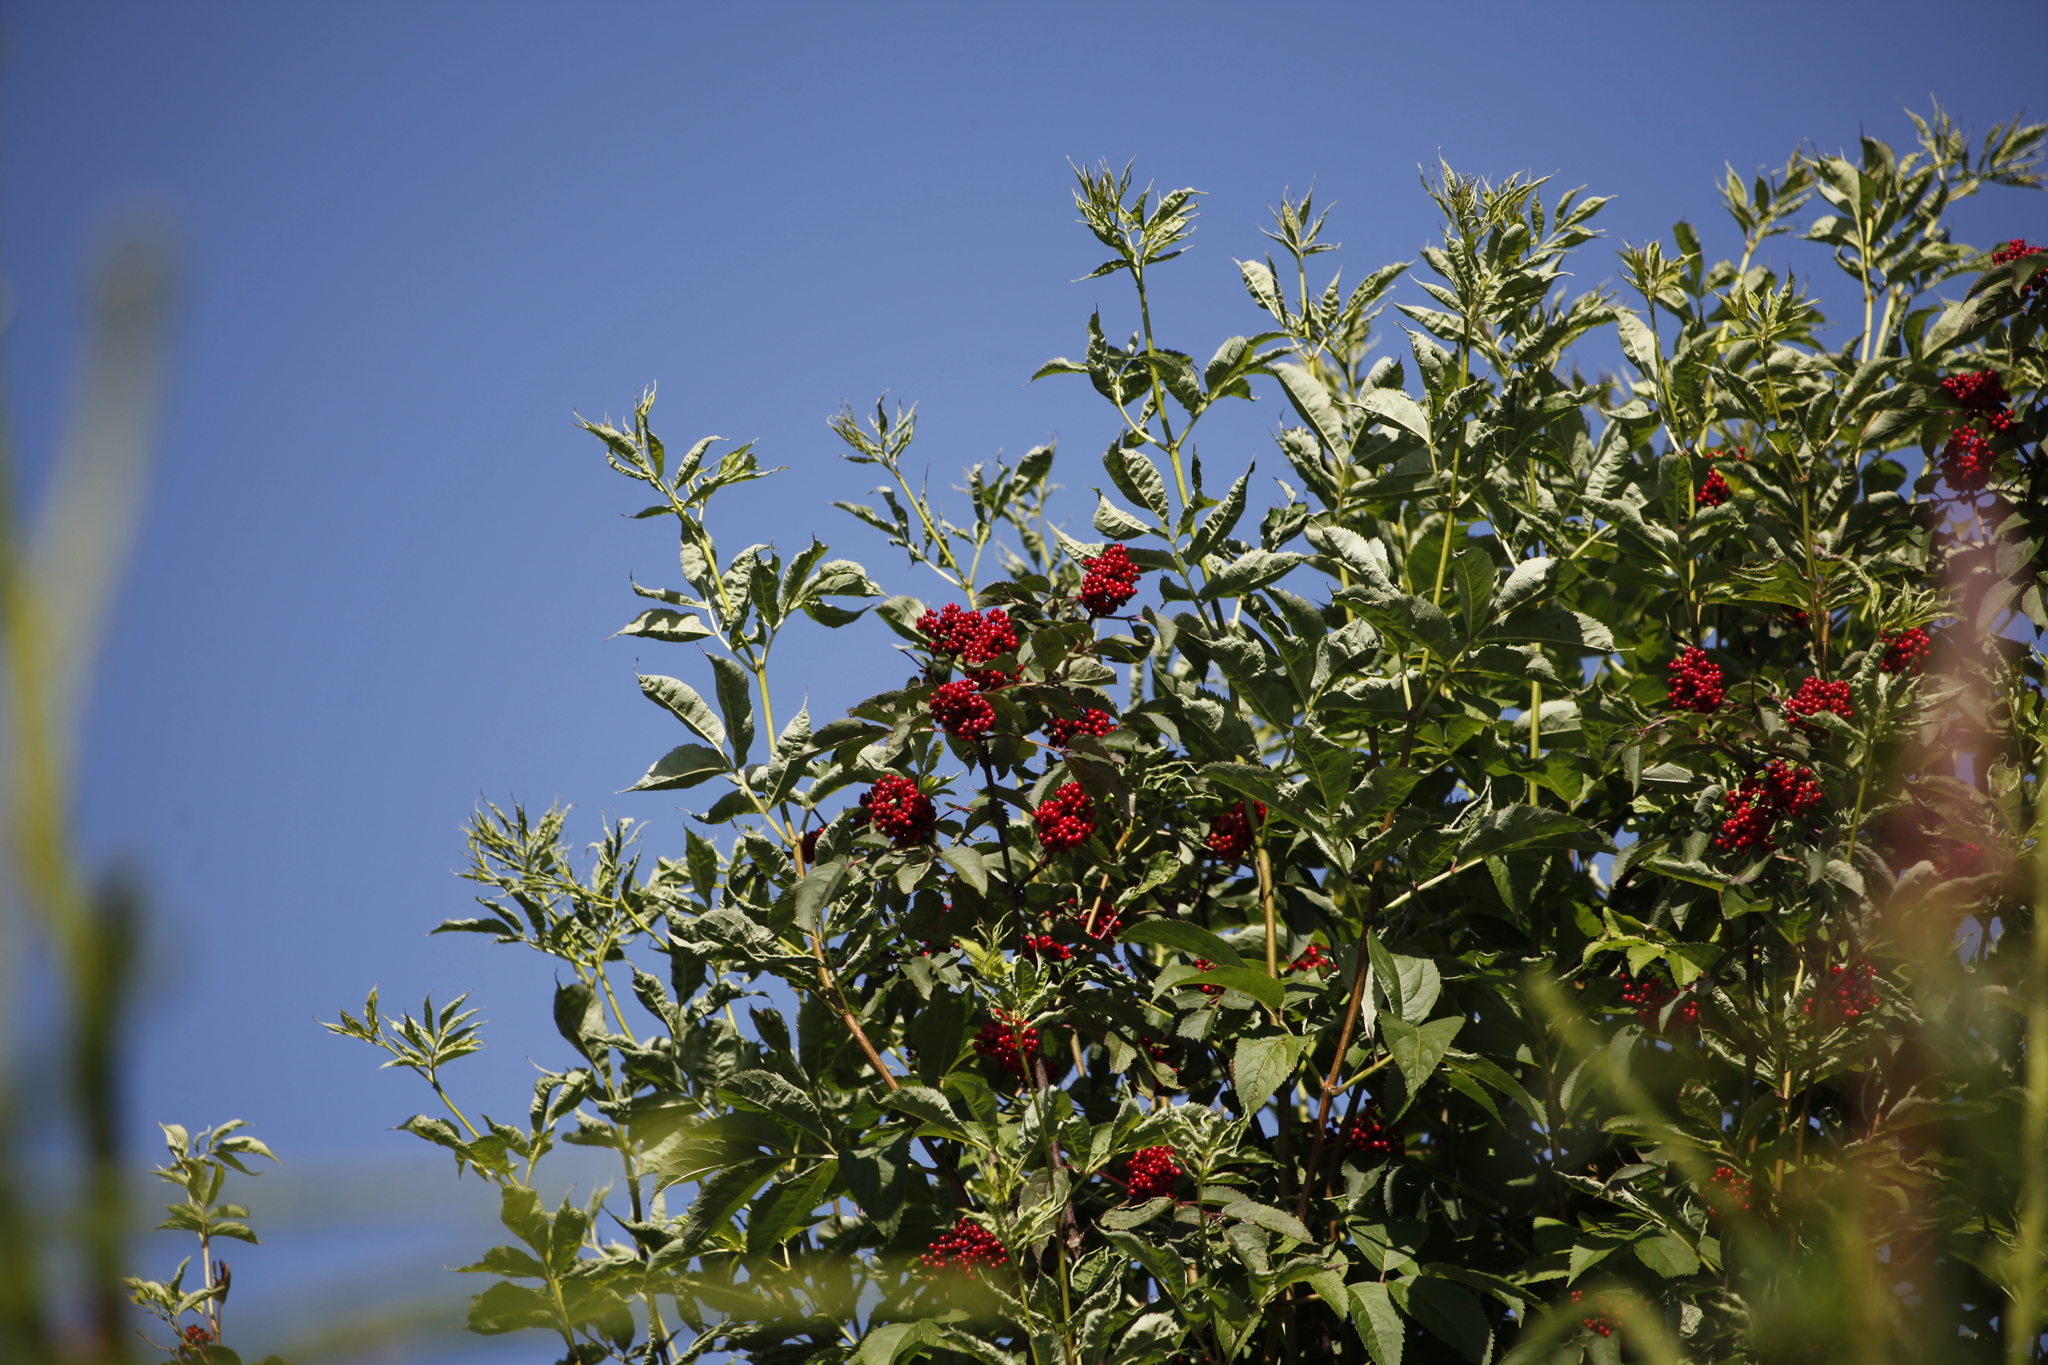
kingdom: Plantae
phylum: Tracheophyta
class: Magnoliopsida
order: Dipsacales
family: Viburnaceae
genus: Sambucus
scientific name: Sambucus racemosa
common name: Red-berried elder
